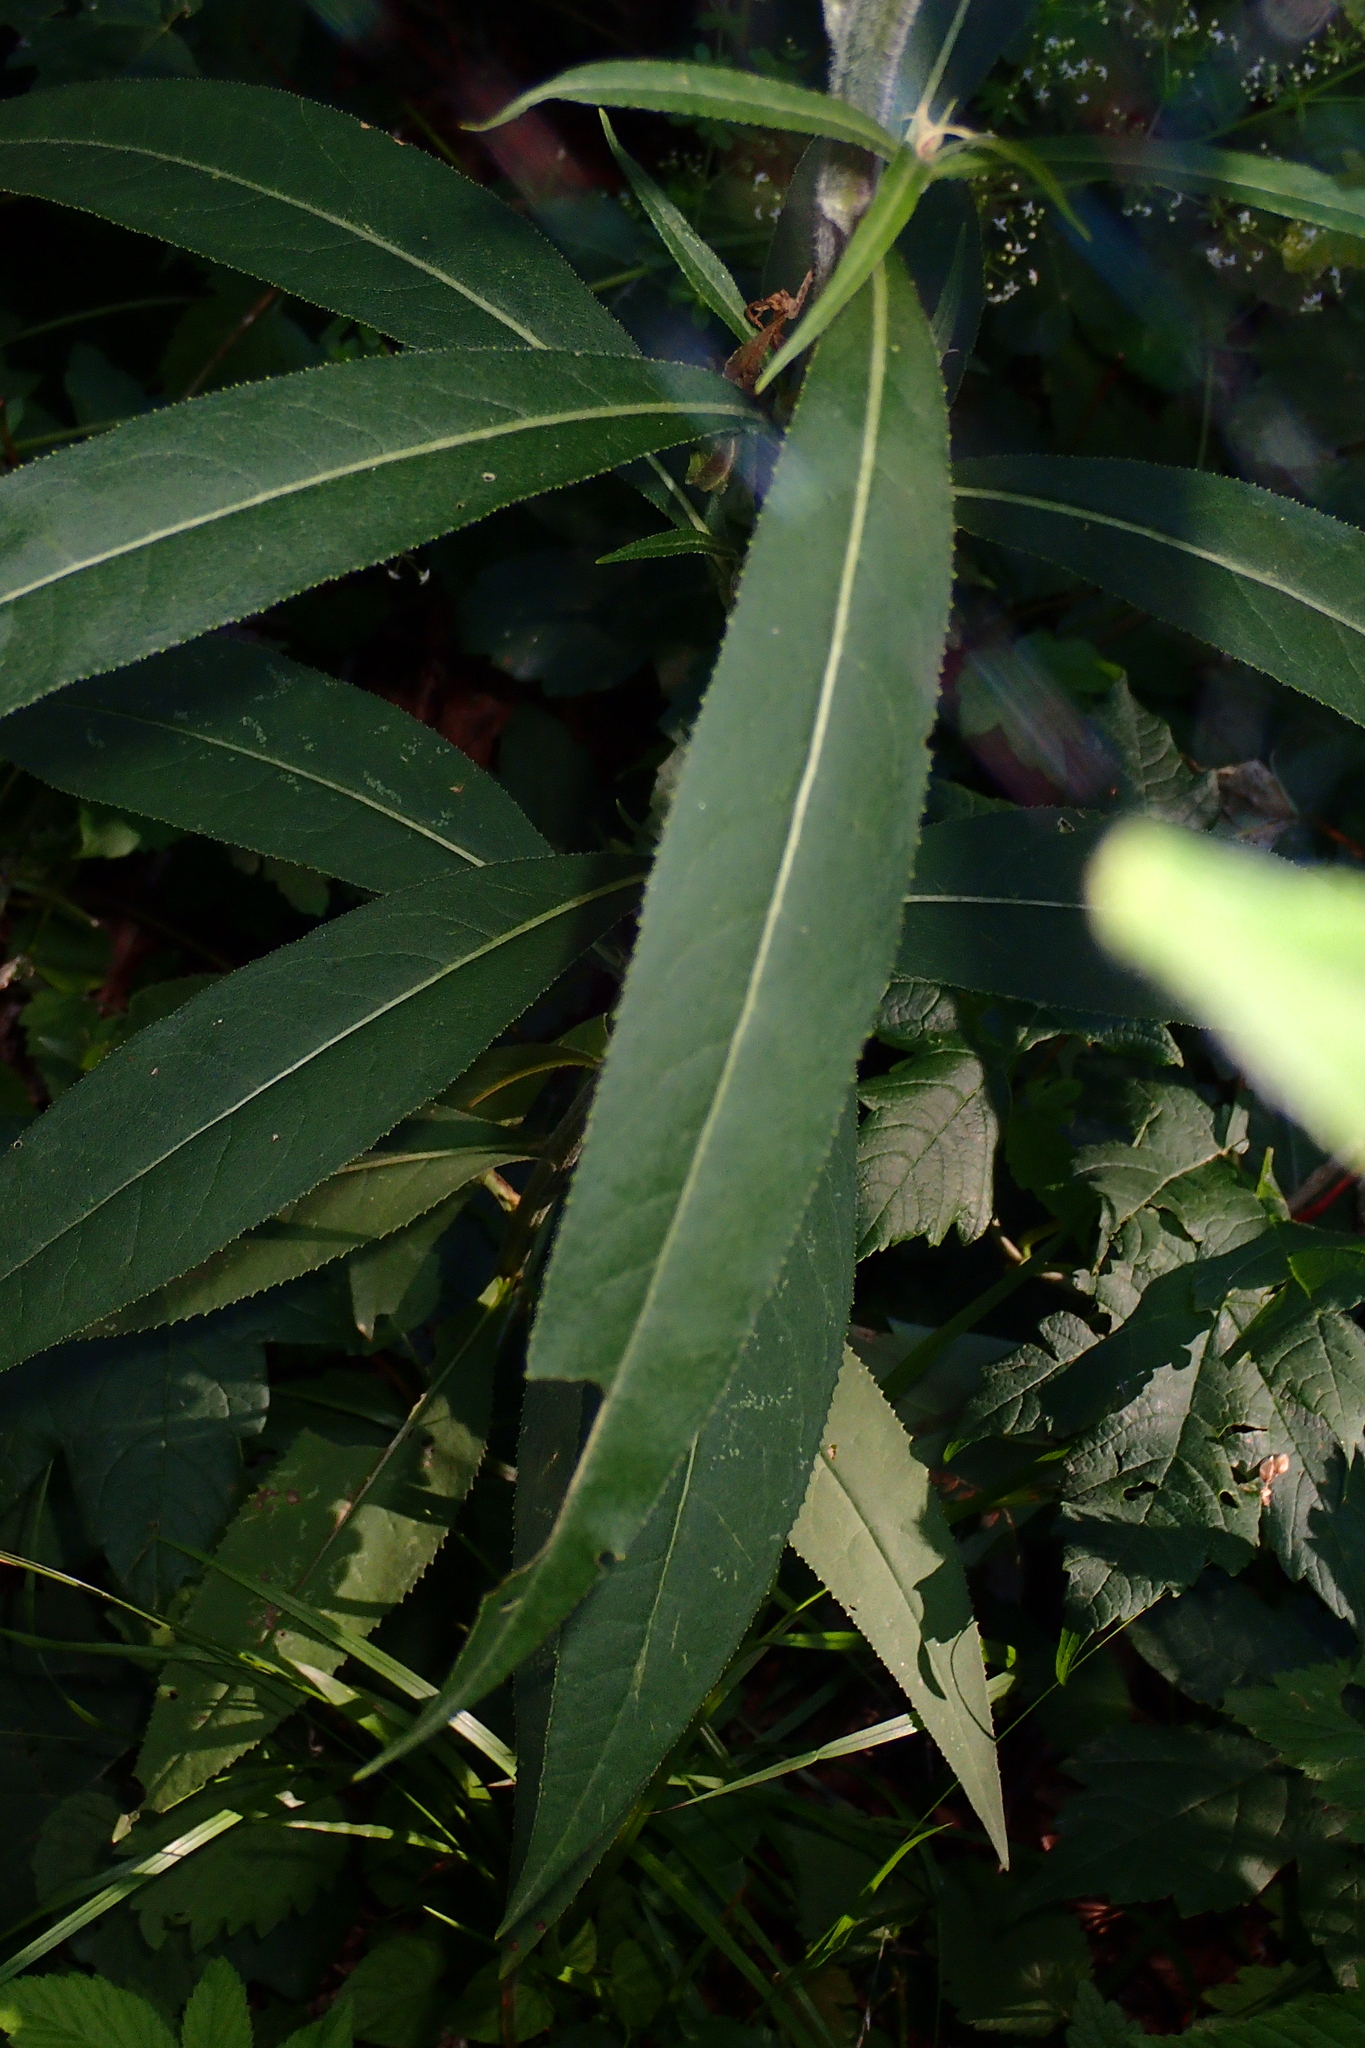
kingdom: Plantae
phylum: Tracheophyta
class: Magnoliopsida
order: Asterales
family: Asteraceae
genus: Senecio
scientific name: Senecio ovatus
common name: Wood ragwort
